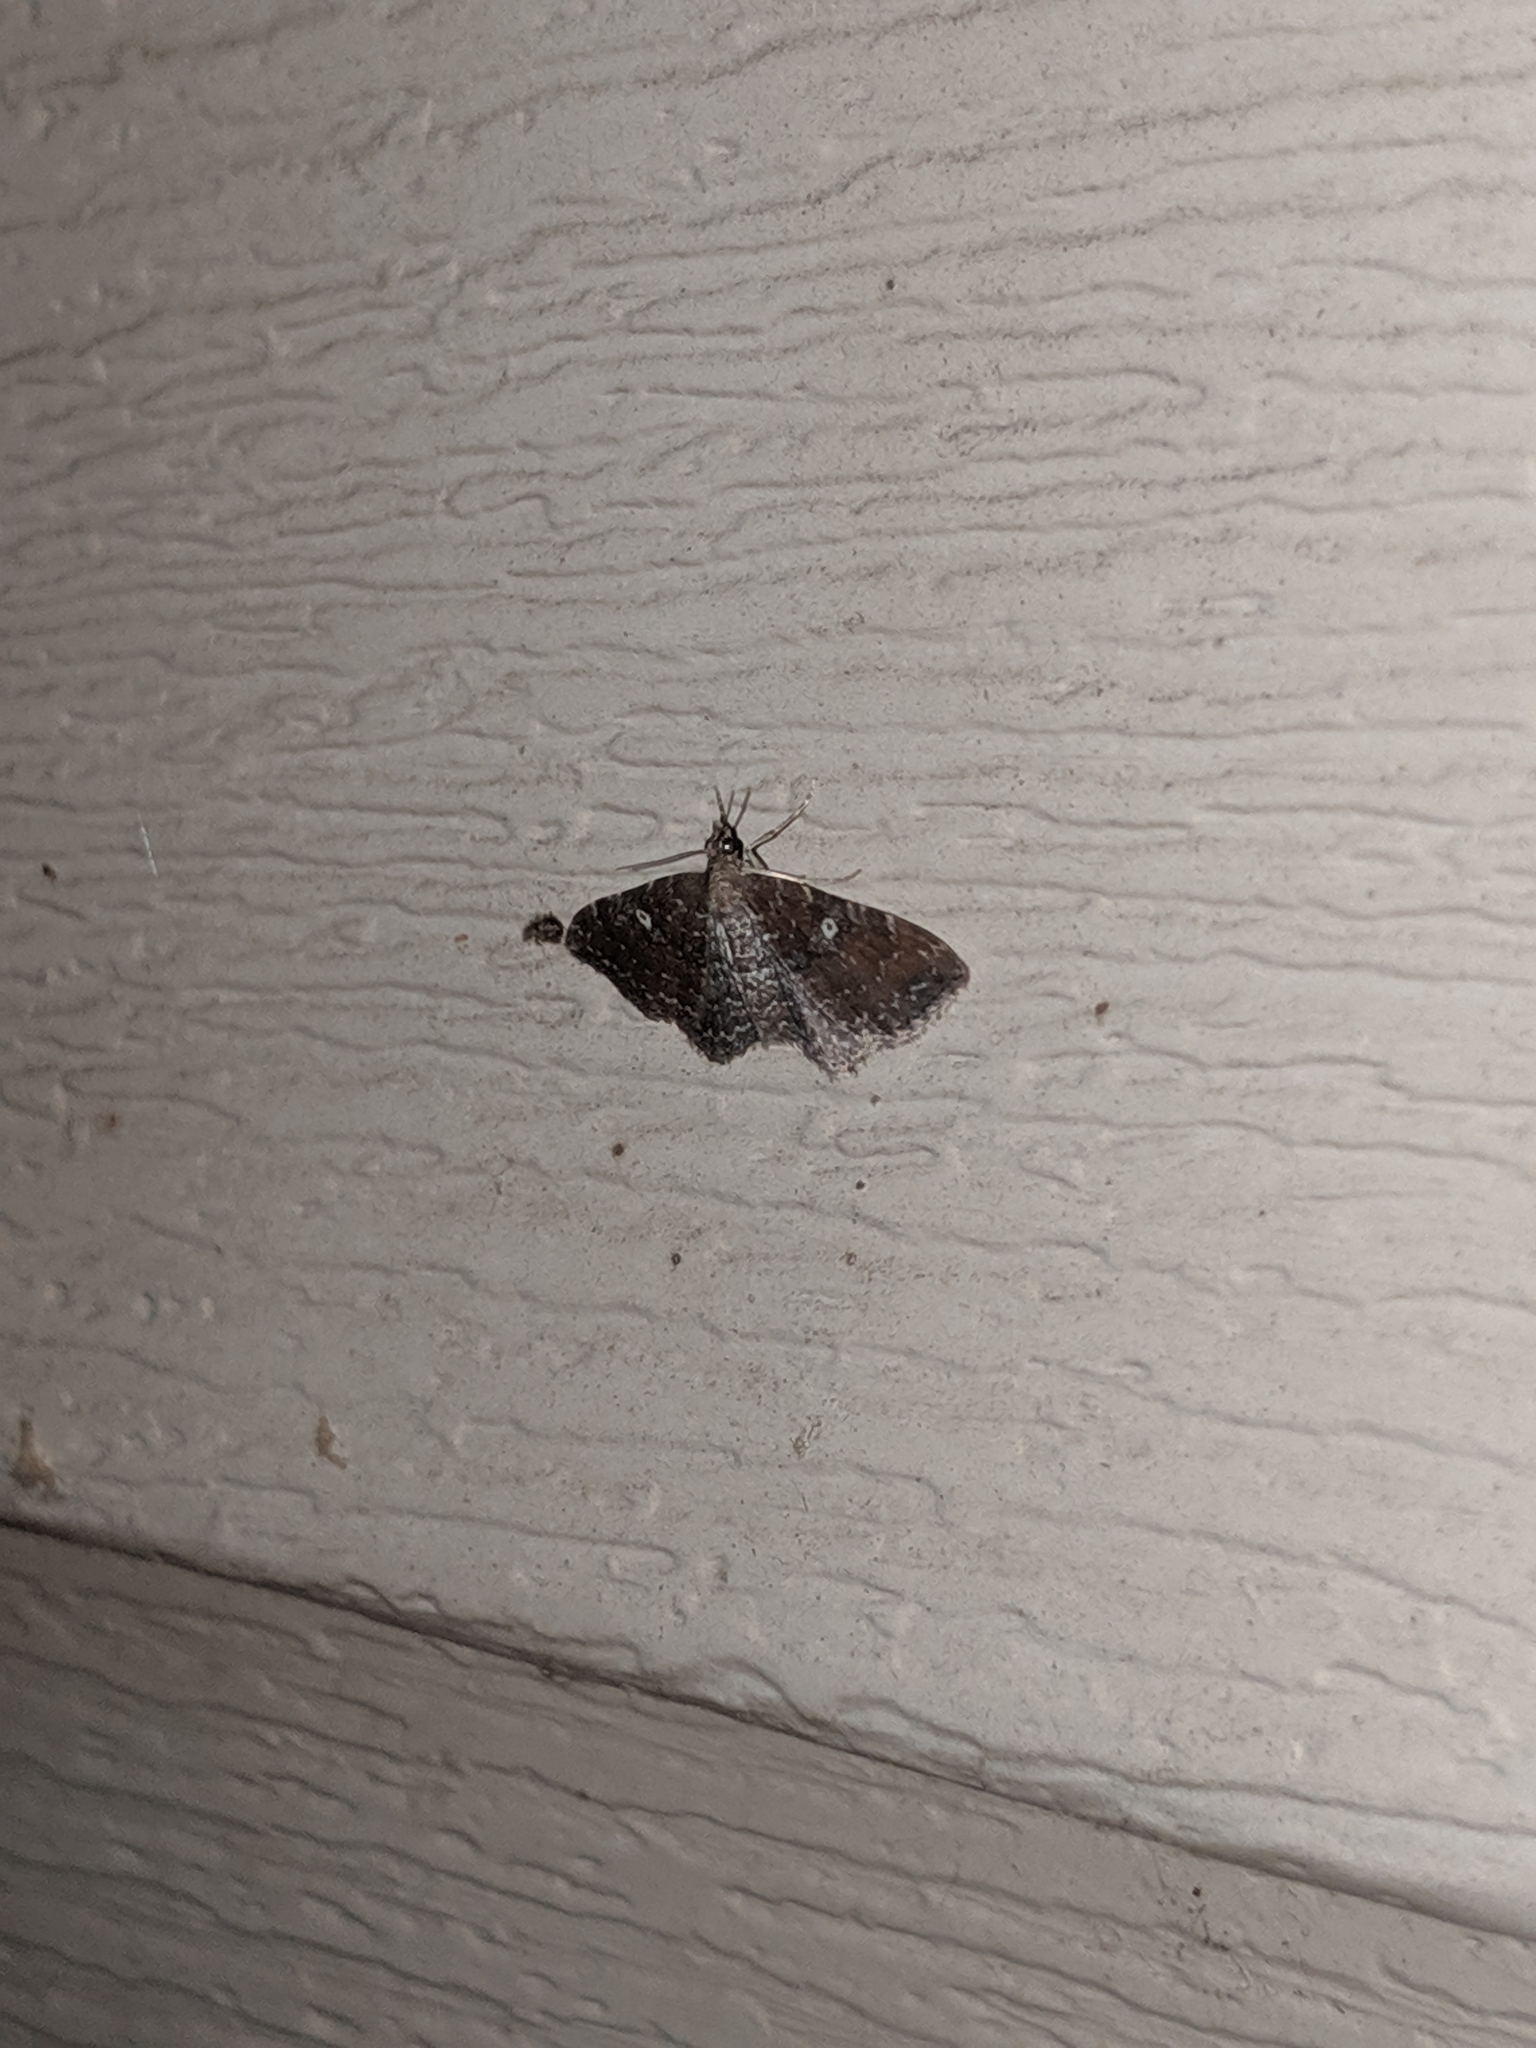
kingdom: Animalia
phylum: Arthropoda
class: Insecta
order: Lepidoptera
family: Geometridae
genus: Orthonama
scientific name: Orthonama obstipata
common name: The gem
